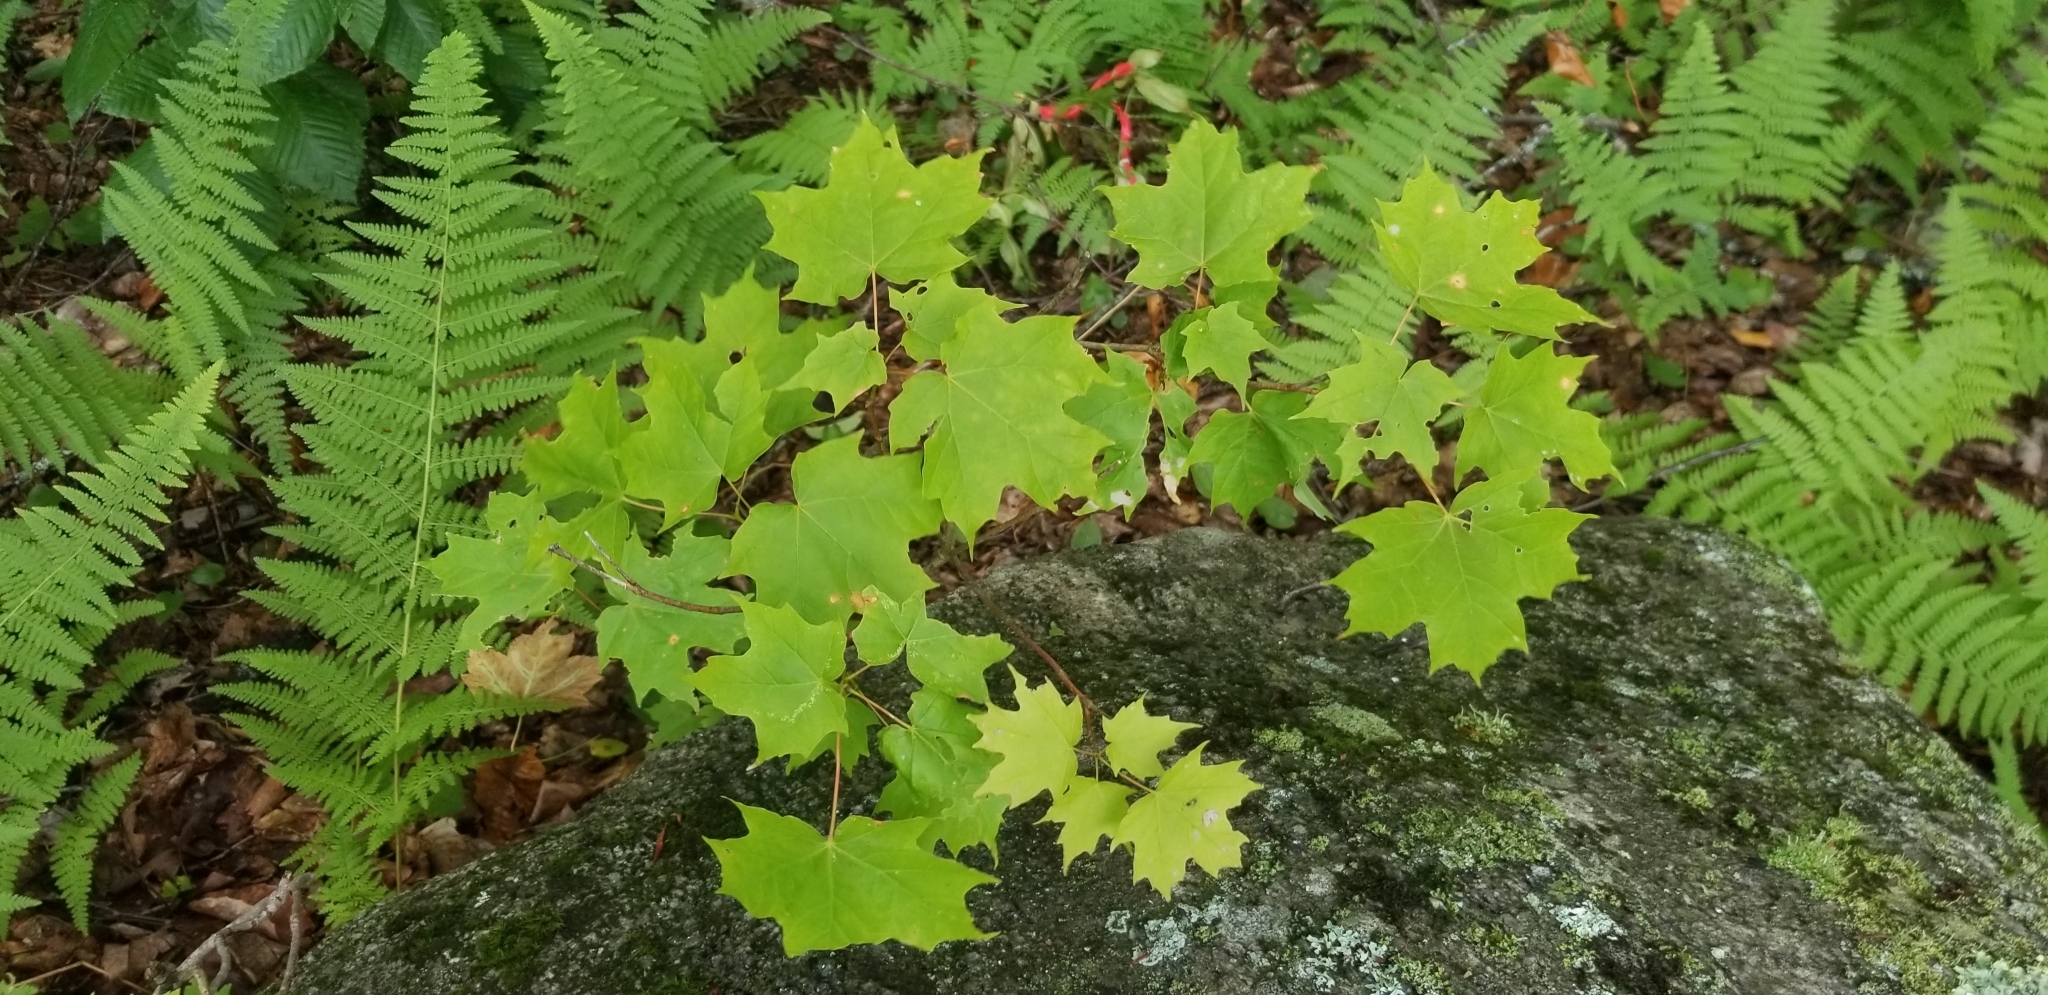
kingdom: Plantae
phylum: Tracheophyta
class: Magnoliopsida
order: Sapindales
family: Sapindaceae
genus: Acer
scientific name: Acer saccharum
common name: Sugar maple
